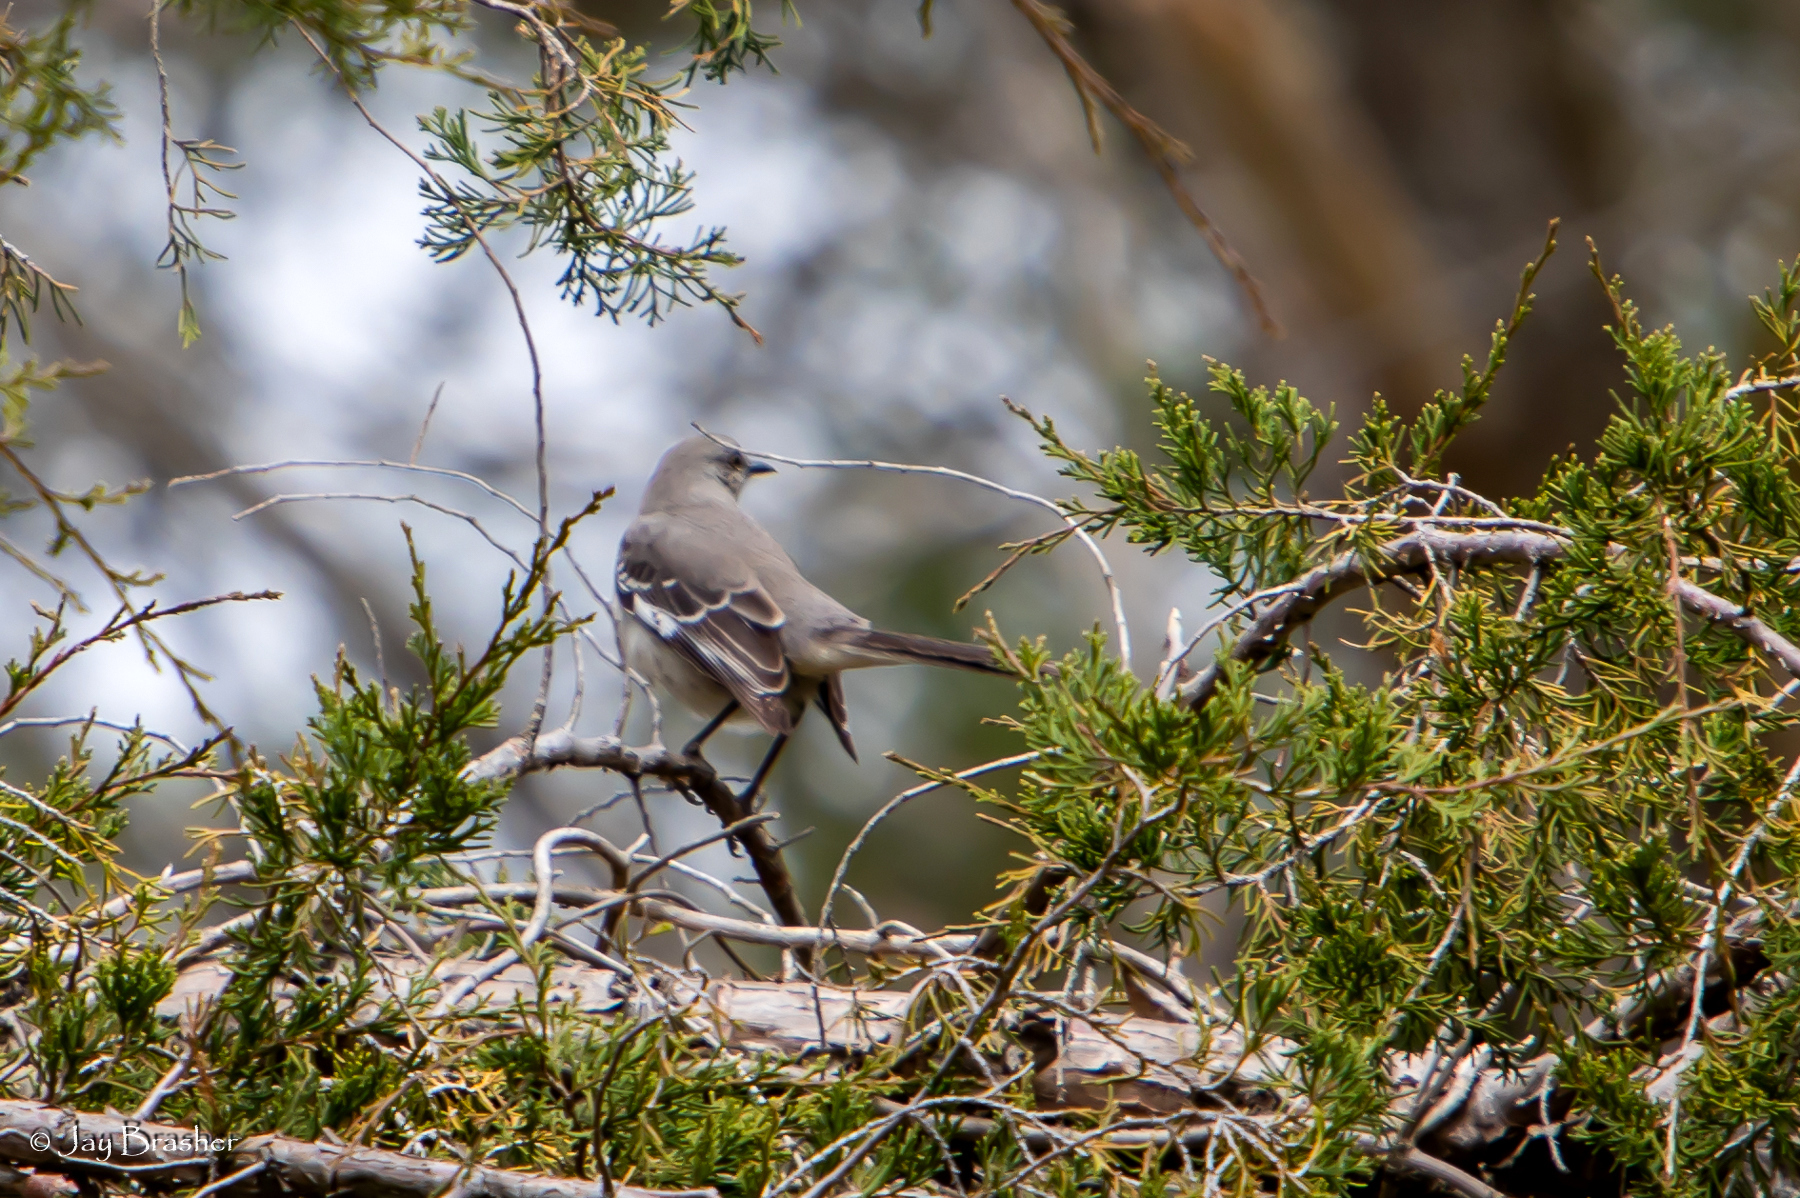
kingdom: Animalia
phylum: Chordata
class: Aves
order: Passeriformes
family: Mimidae
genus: Mimus
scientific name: Mimus polyglottos
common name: Northern mockingbird
